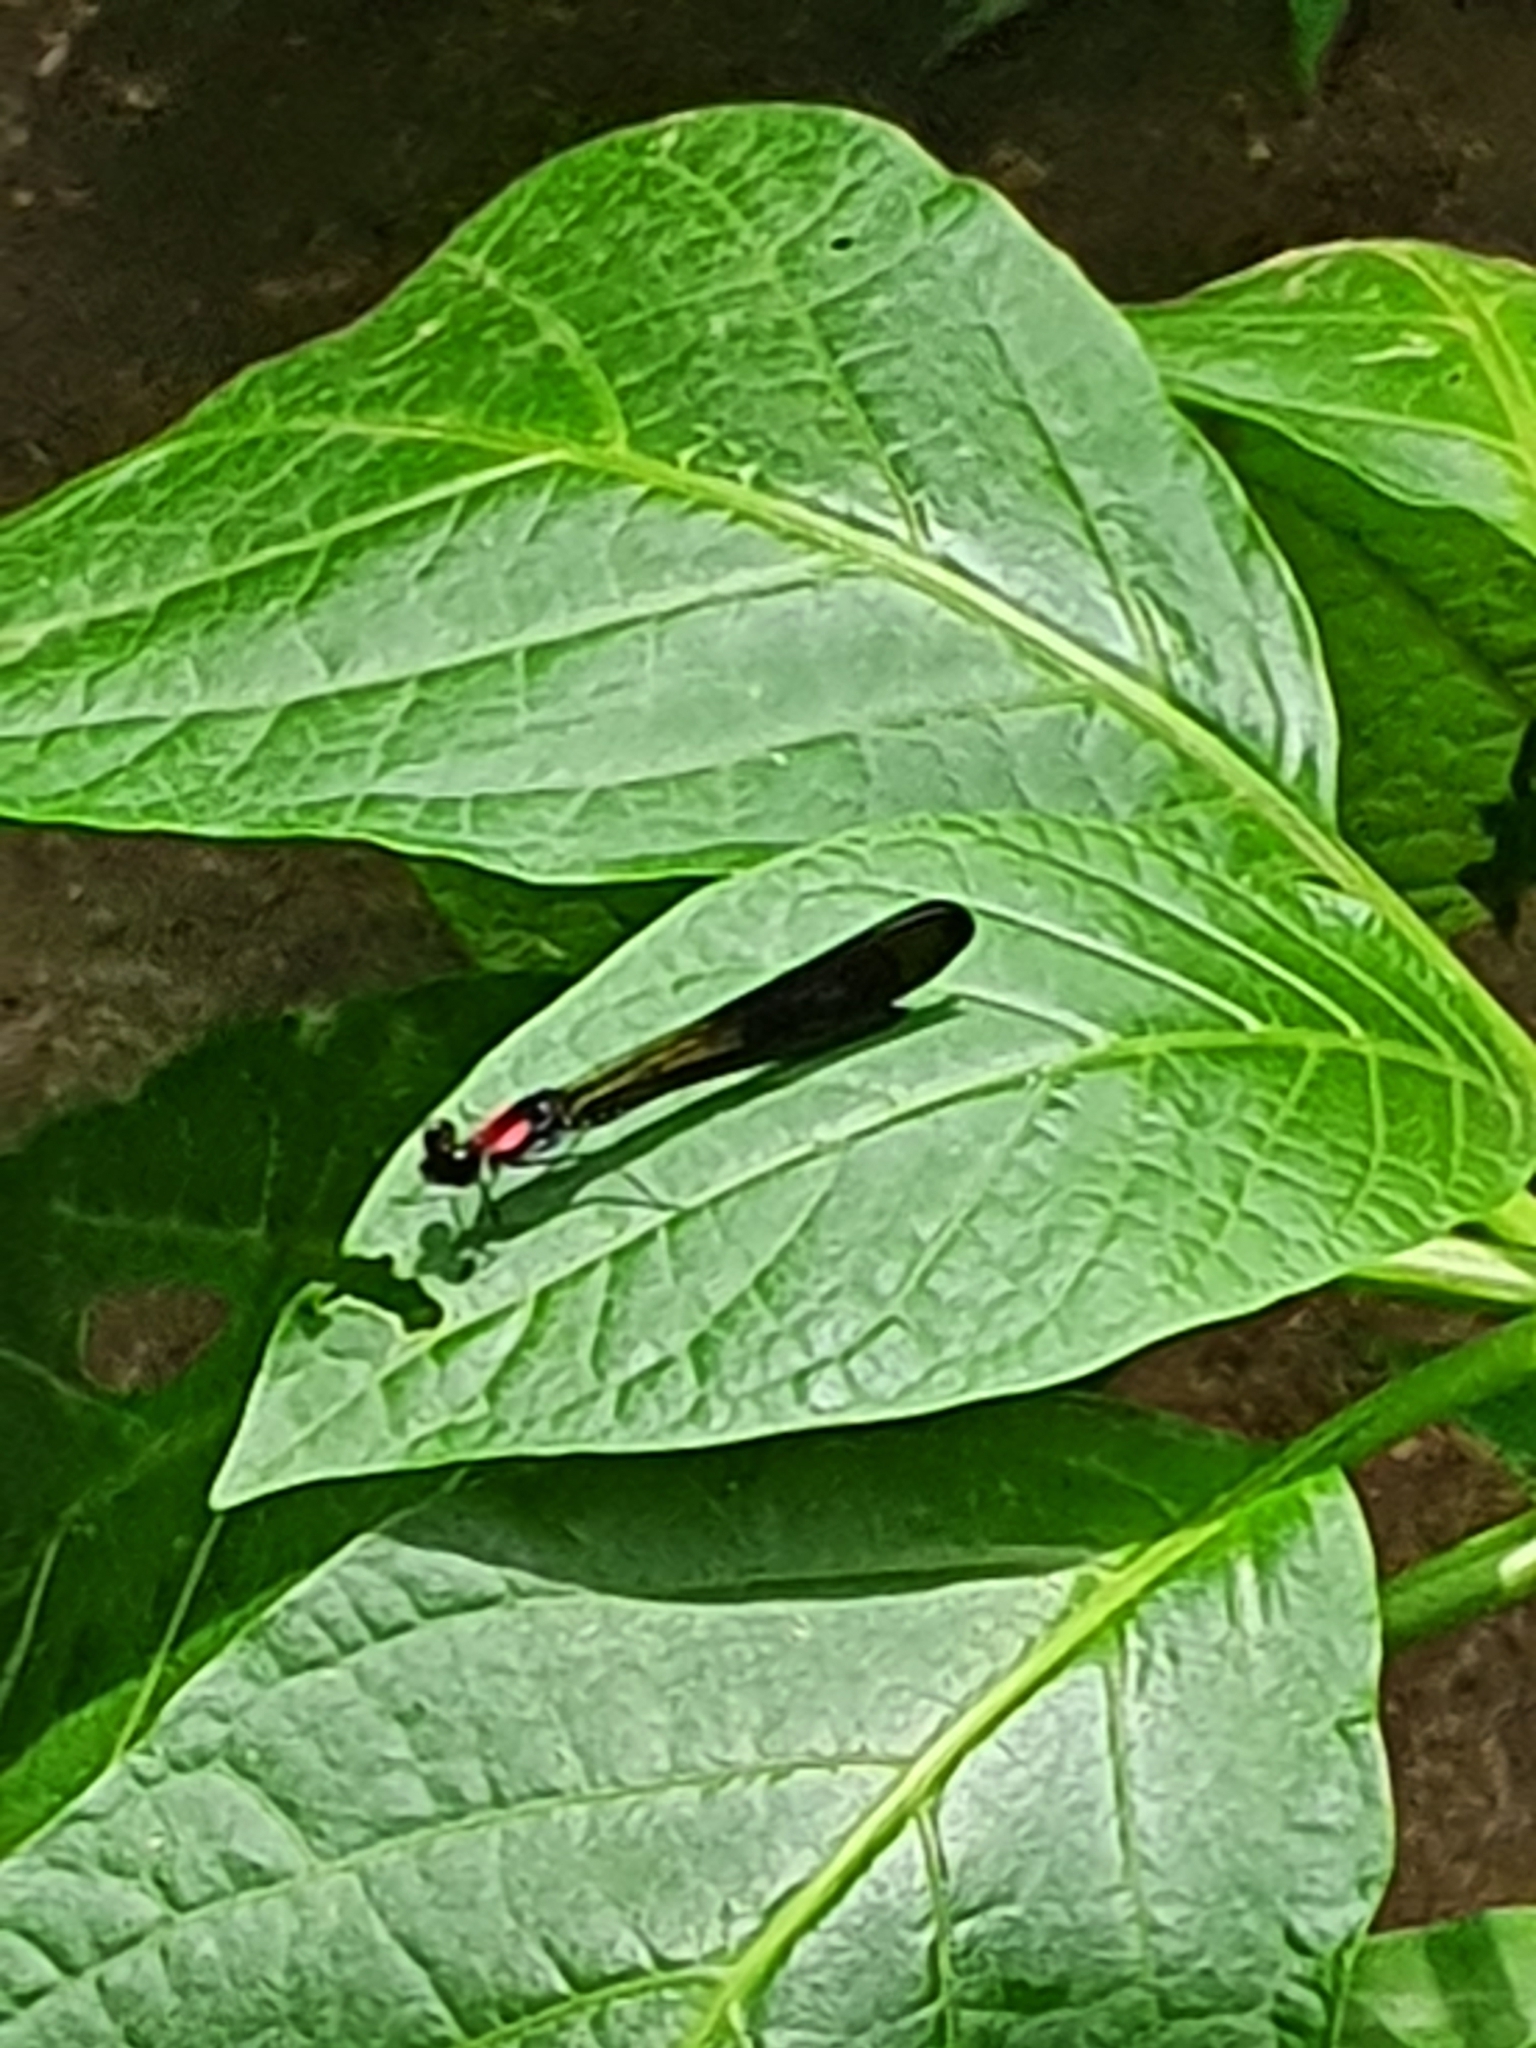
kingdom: Animalia
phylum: Arthropoda
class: Insecta
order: Odonata
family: Chlorocyphidae
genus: Heliocypha
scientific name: Heliocypha fenestrata
